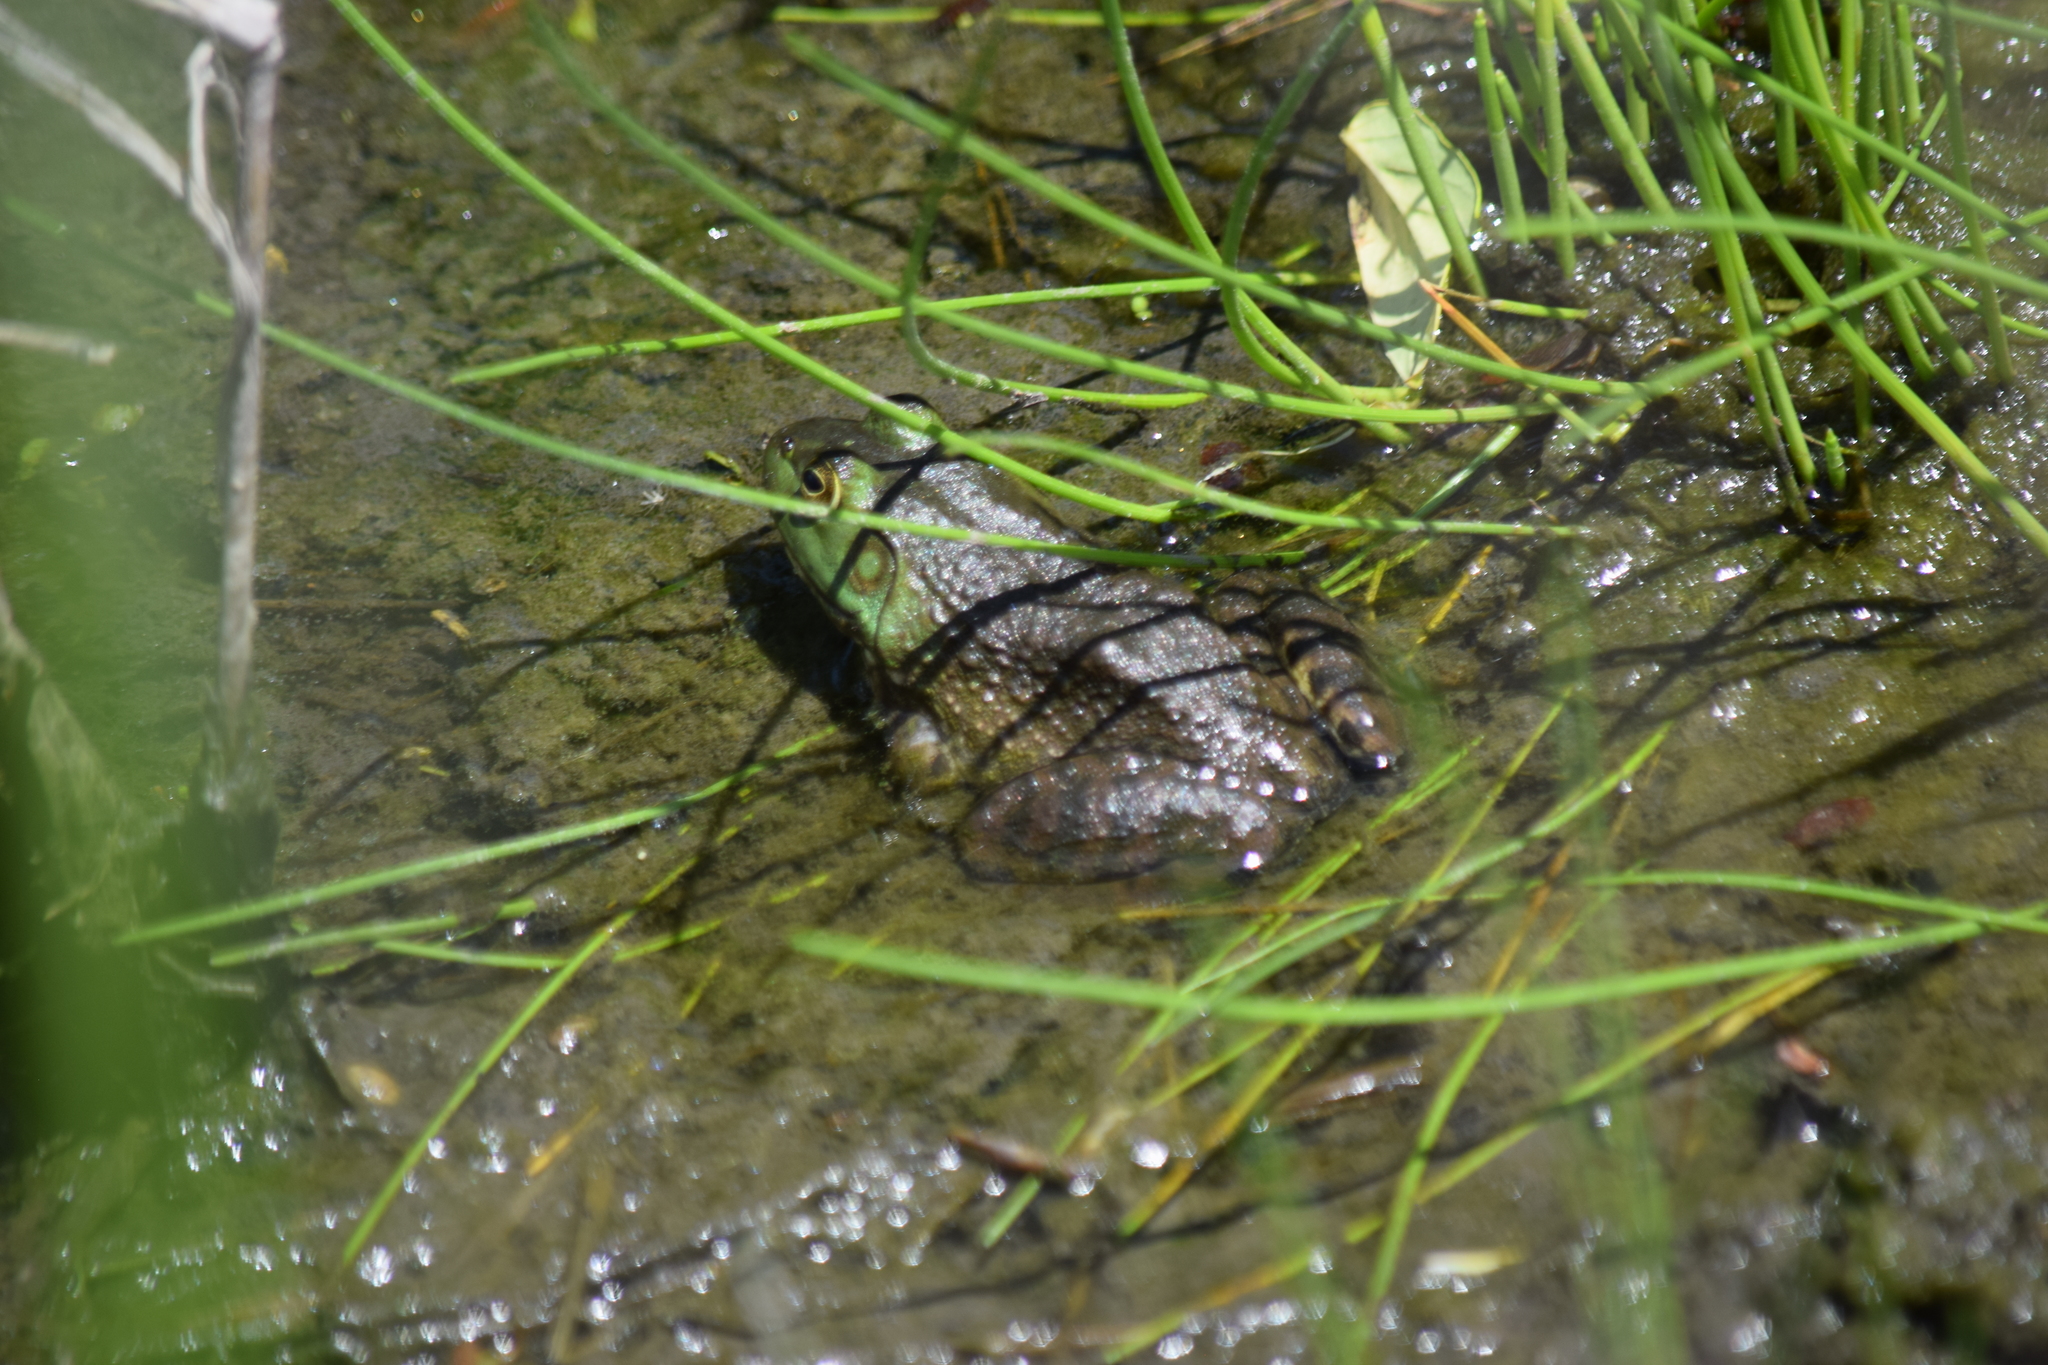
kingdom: Animalia
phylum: Chordata
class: Amphibia
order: Anura
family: Ranidae
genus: Lithobates
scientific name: Lithobates catesbeianus
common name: American bullfrog
